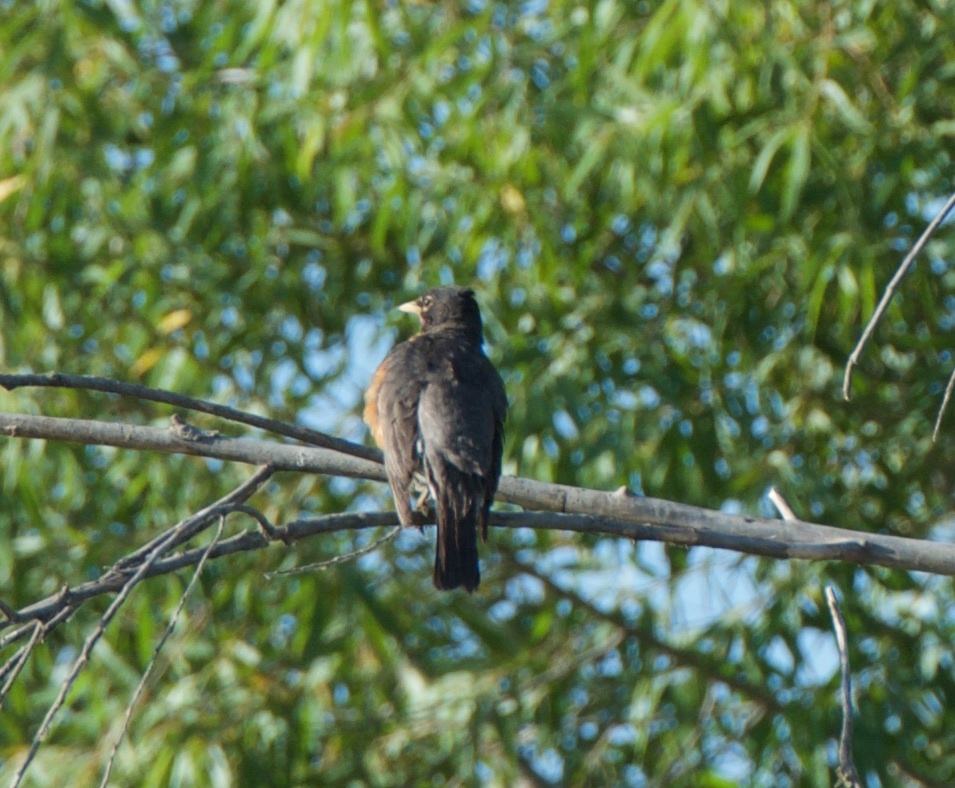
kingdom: Animalia
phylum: Chordata
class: Aves
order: Pelecaniformes
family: Ardeidae
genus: Butorides
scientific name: Butorides virescens
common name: Green heron
